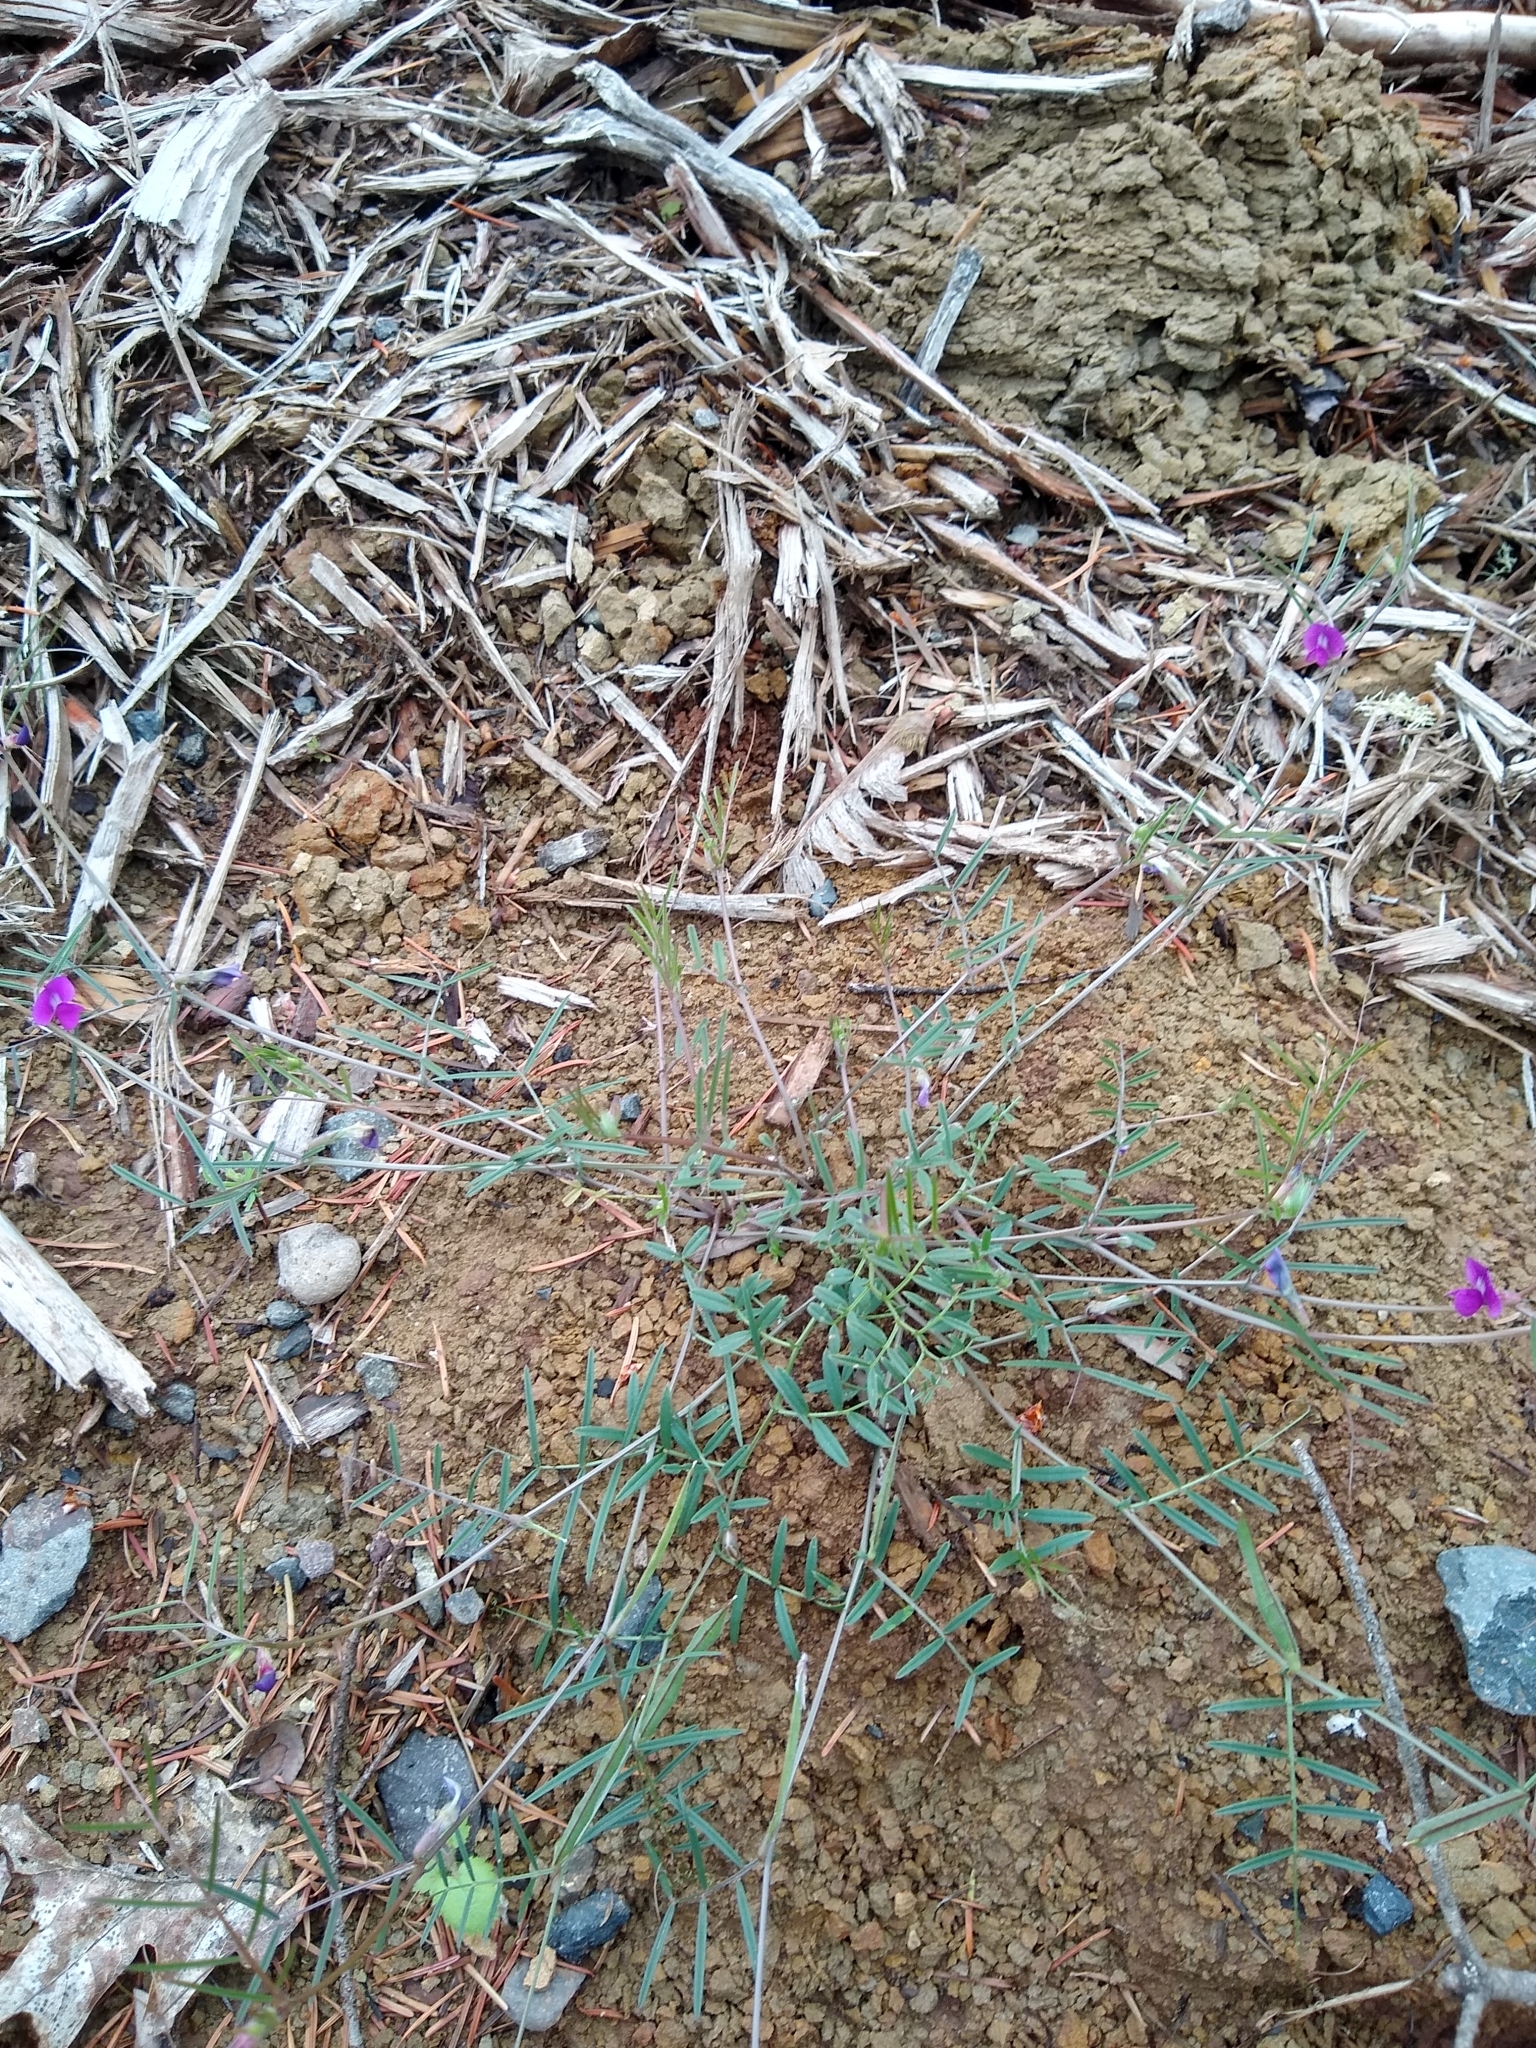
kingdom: Plantae
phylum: Tracheophyta
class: Magnoliopsida
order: Fabales
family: Fabaceae
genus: Vicia
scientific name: Vicia sativa
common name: Garden vetch
